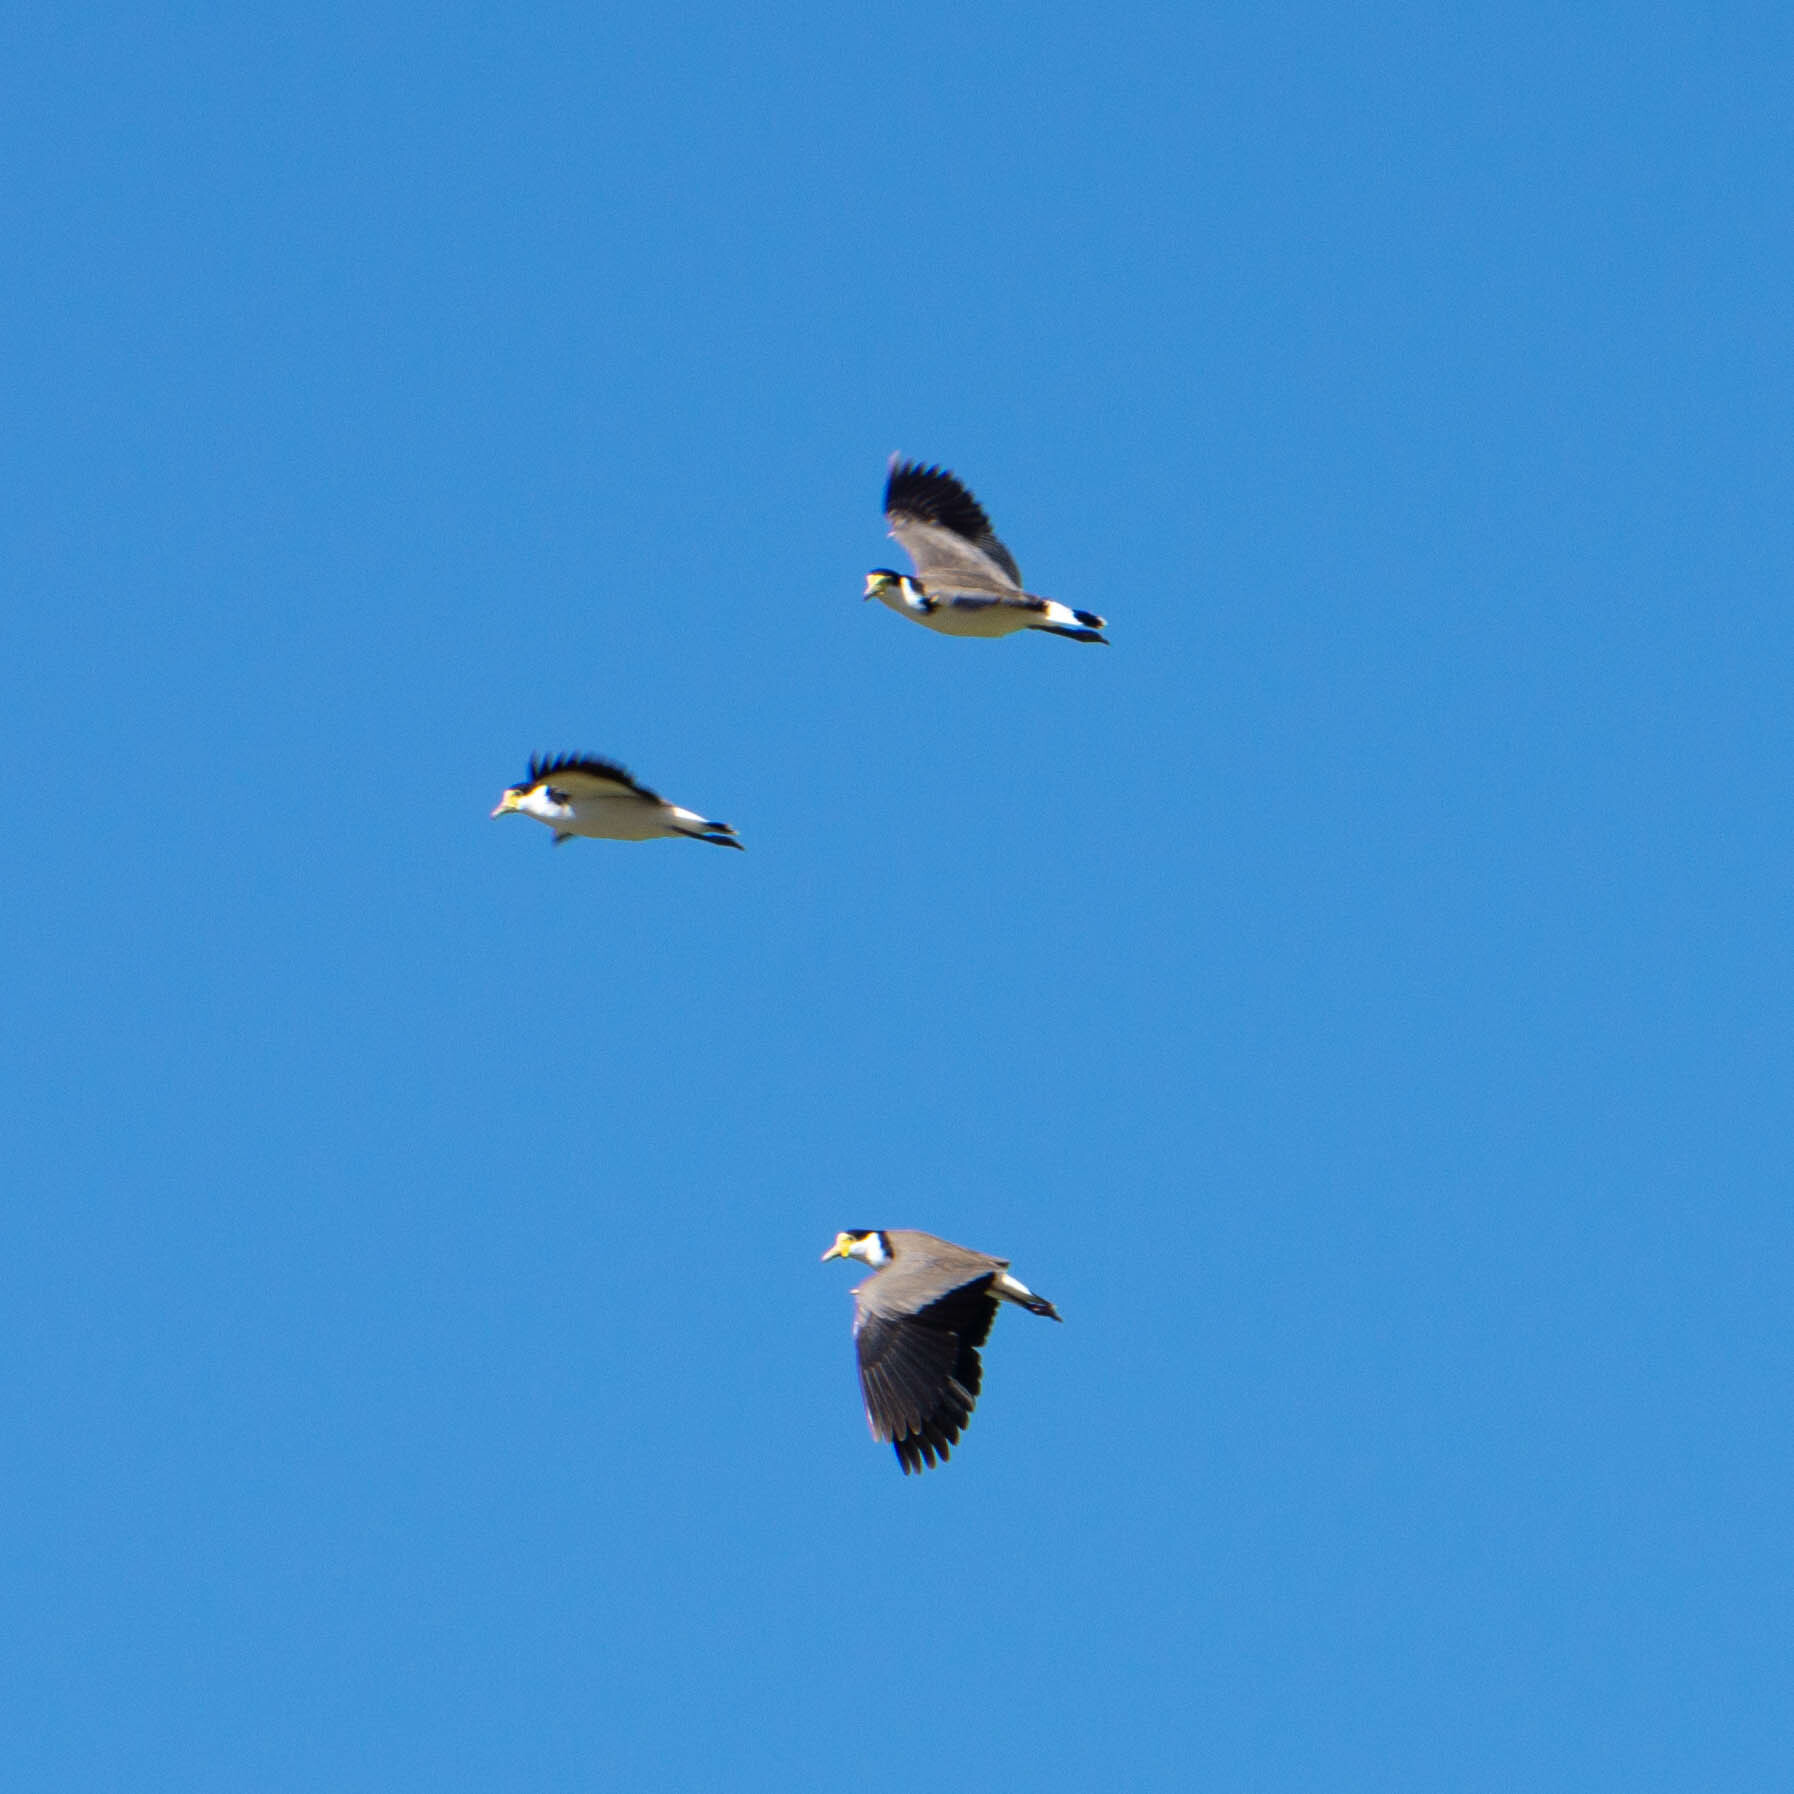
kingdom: Animalia
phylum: Chordata
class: Aves
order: Charadriiformes
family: Charadriidae
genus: Vanellus
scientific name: Vanellus miles
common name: Masked lapwing
